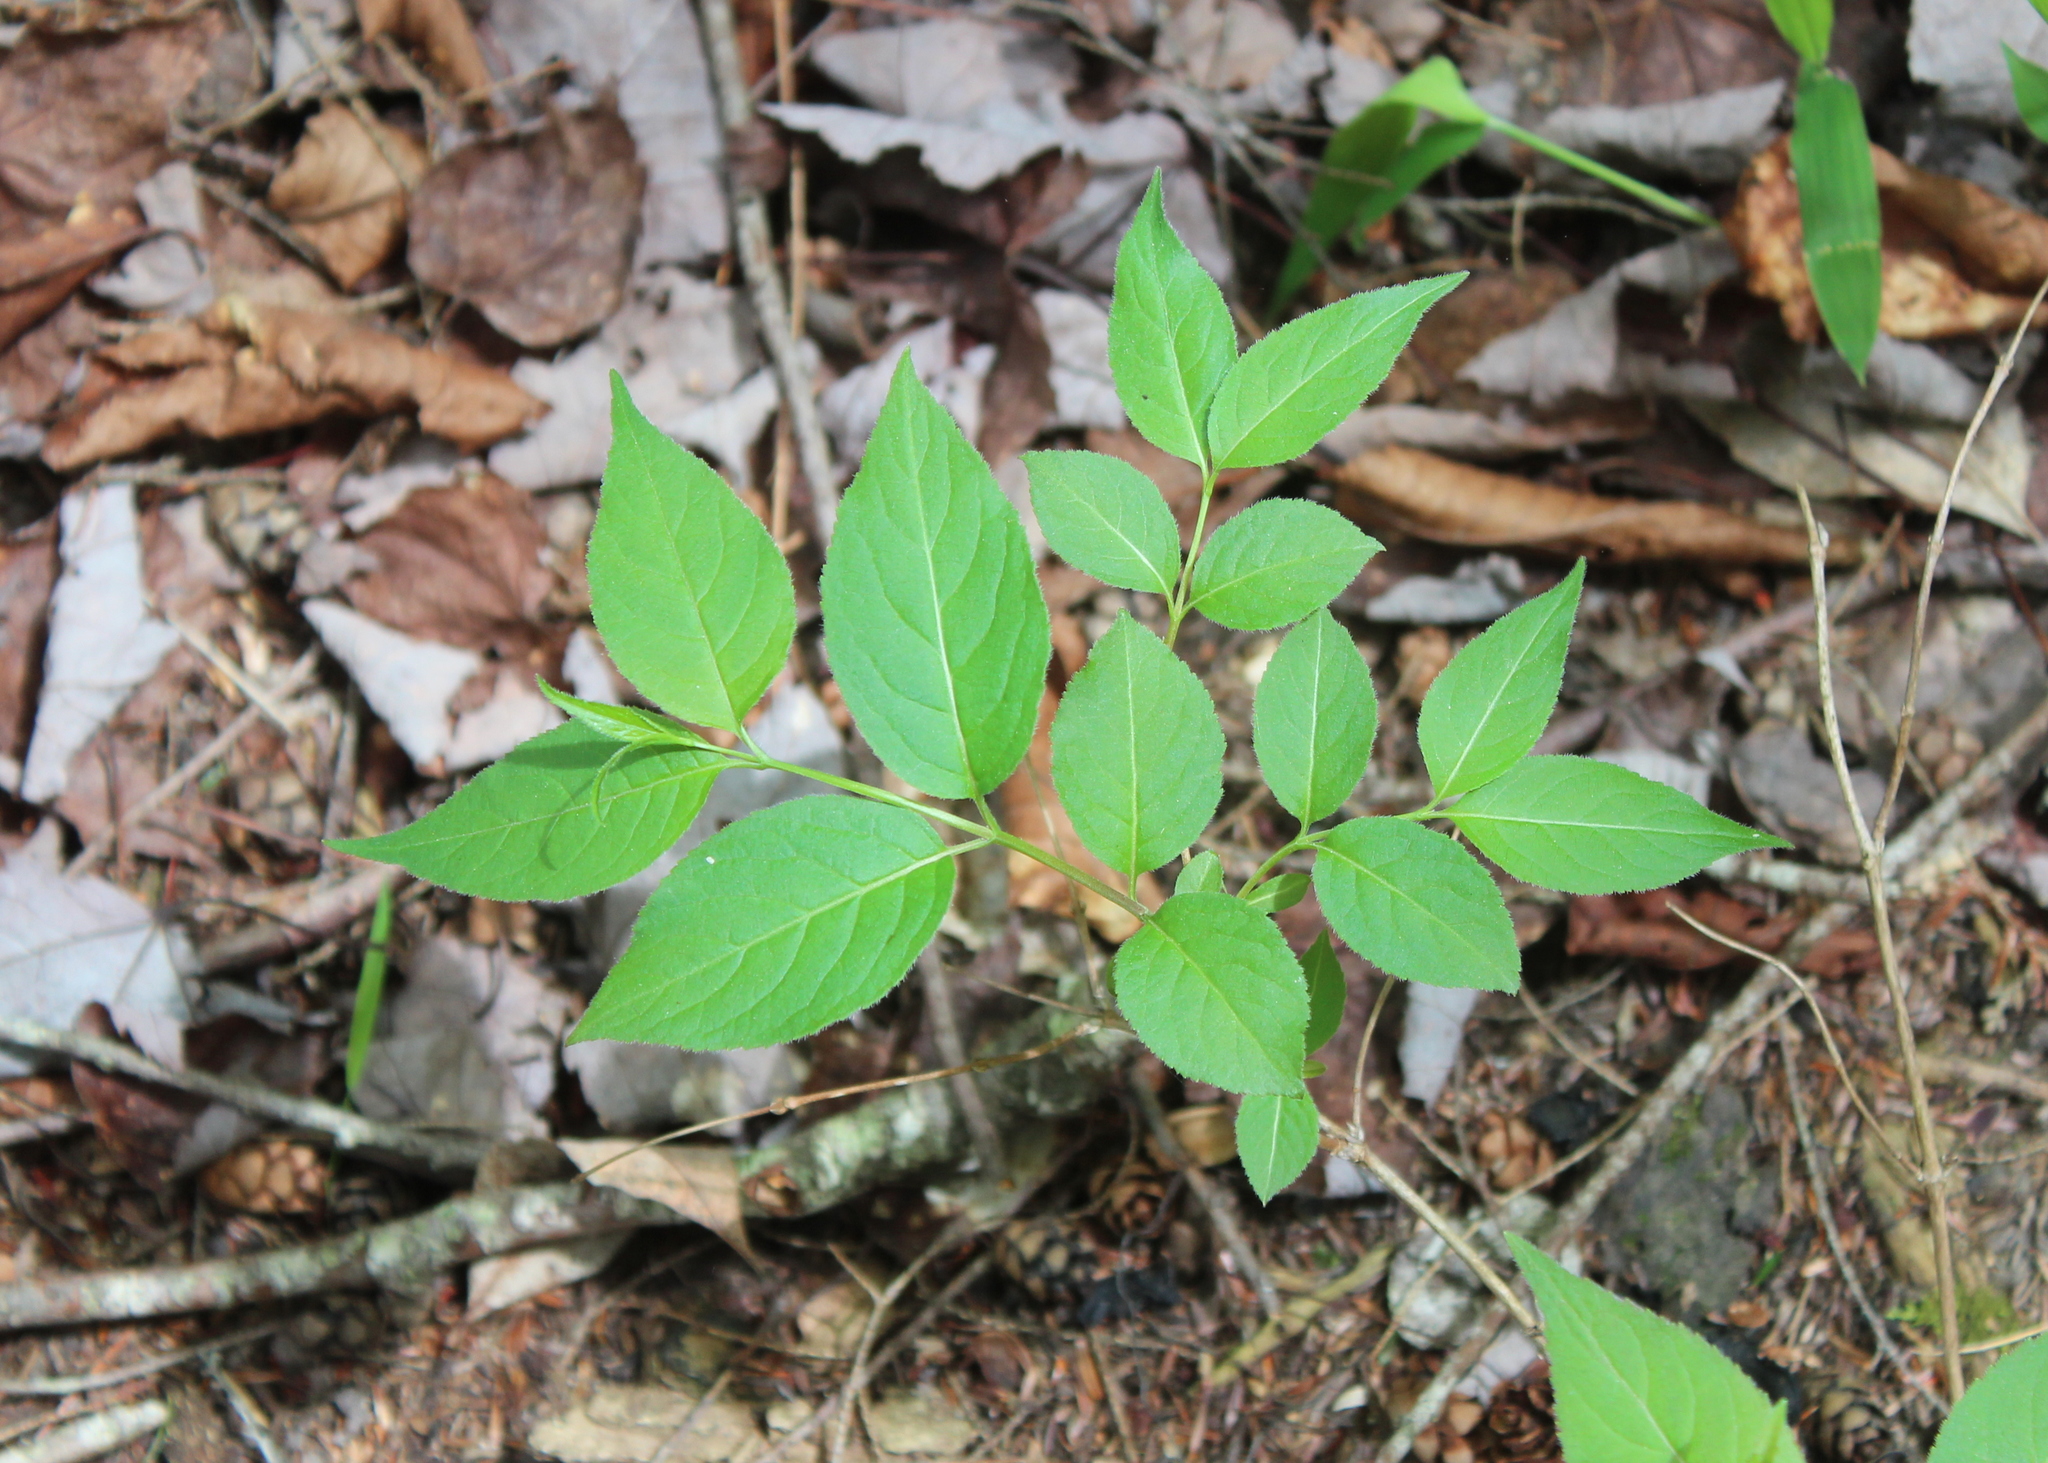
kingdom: Plantae
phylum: Tracheophyta
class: Magnoliopsida
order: Dipsacales
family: Caprifoliaceae
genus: Diervilla
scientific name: Diervilla lonicera
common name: Bush-honeysuckle
